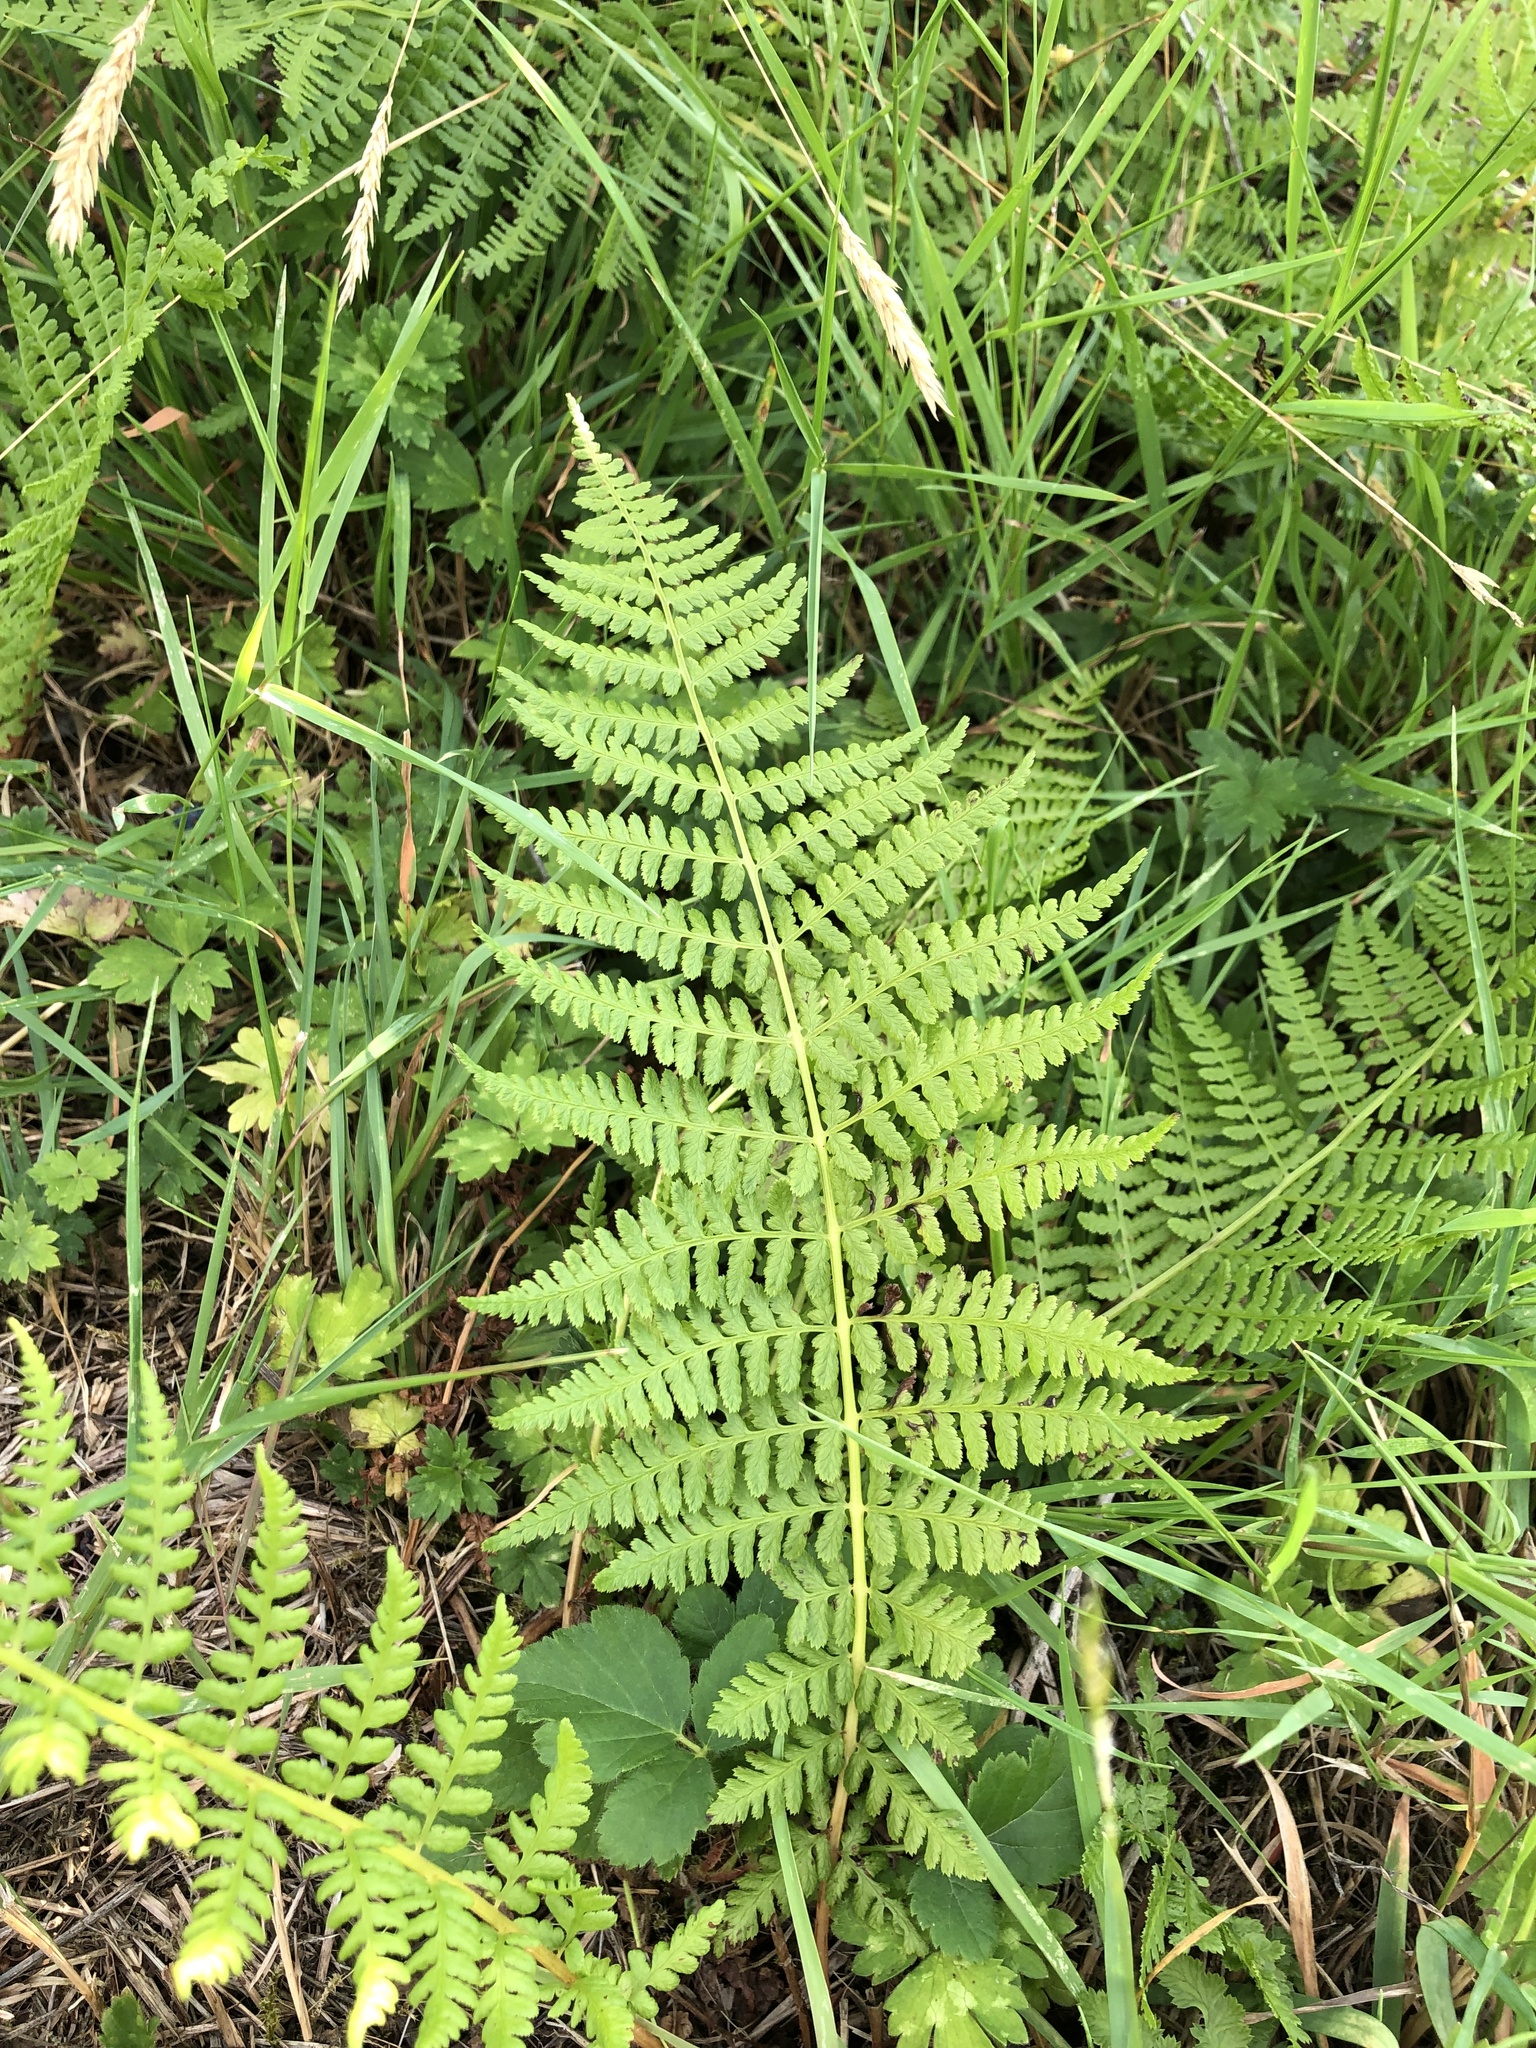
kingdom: Plantae
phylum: Tracheophyta
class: Polypodiopsida
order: Polypodiales
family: Athyriaceae
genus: Athyrium
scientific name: Athyrium cyclosorum
